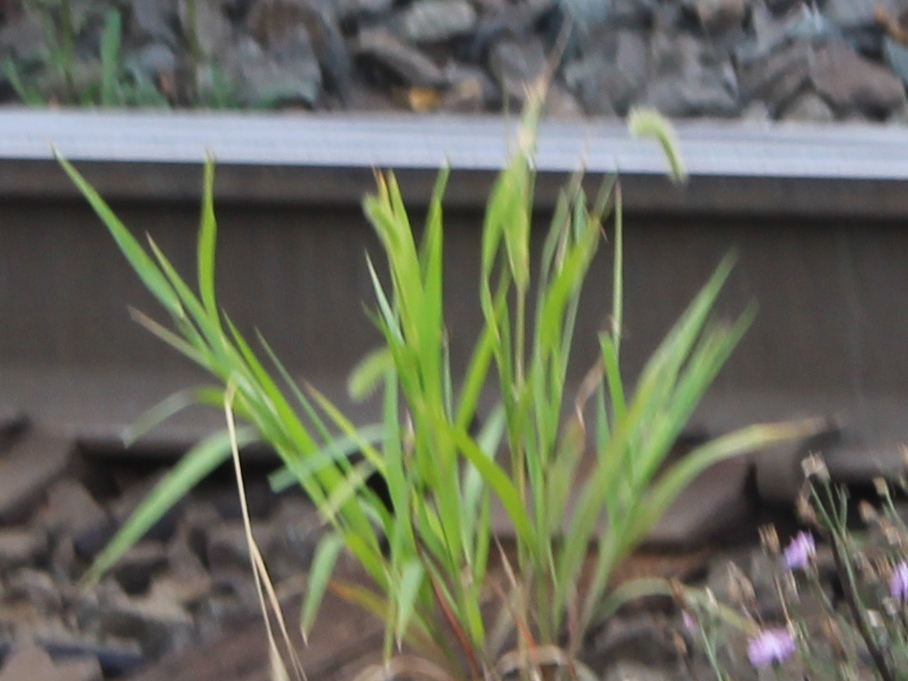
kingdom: Plantae
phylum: Tracheophyta
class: Liliopsida
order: Poales
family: Poaceae
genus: Setaria
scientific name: Setaria faberi
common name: Nodding bristle-grass
